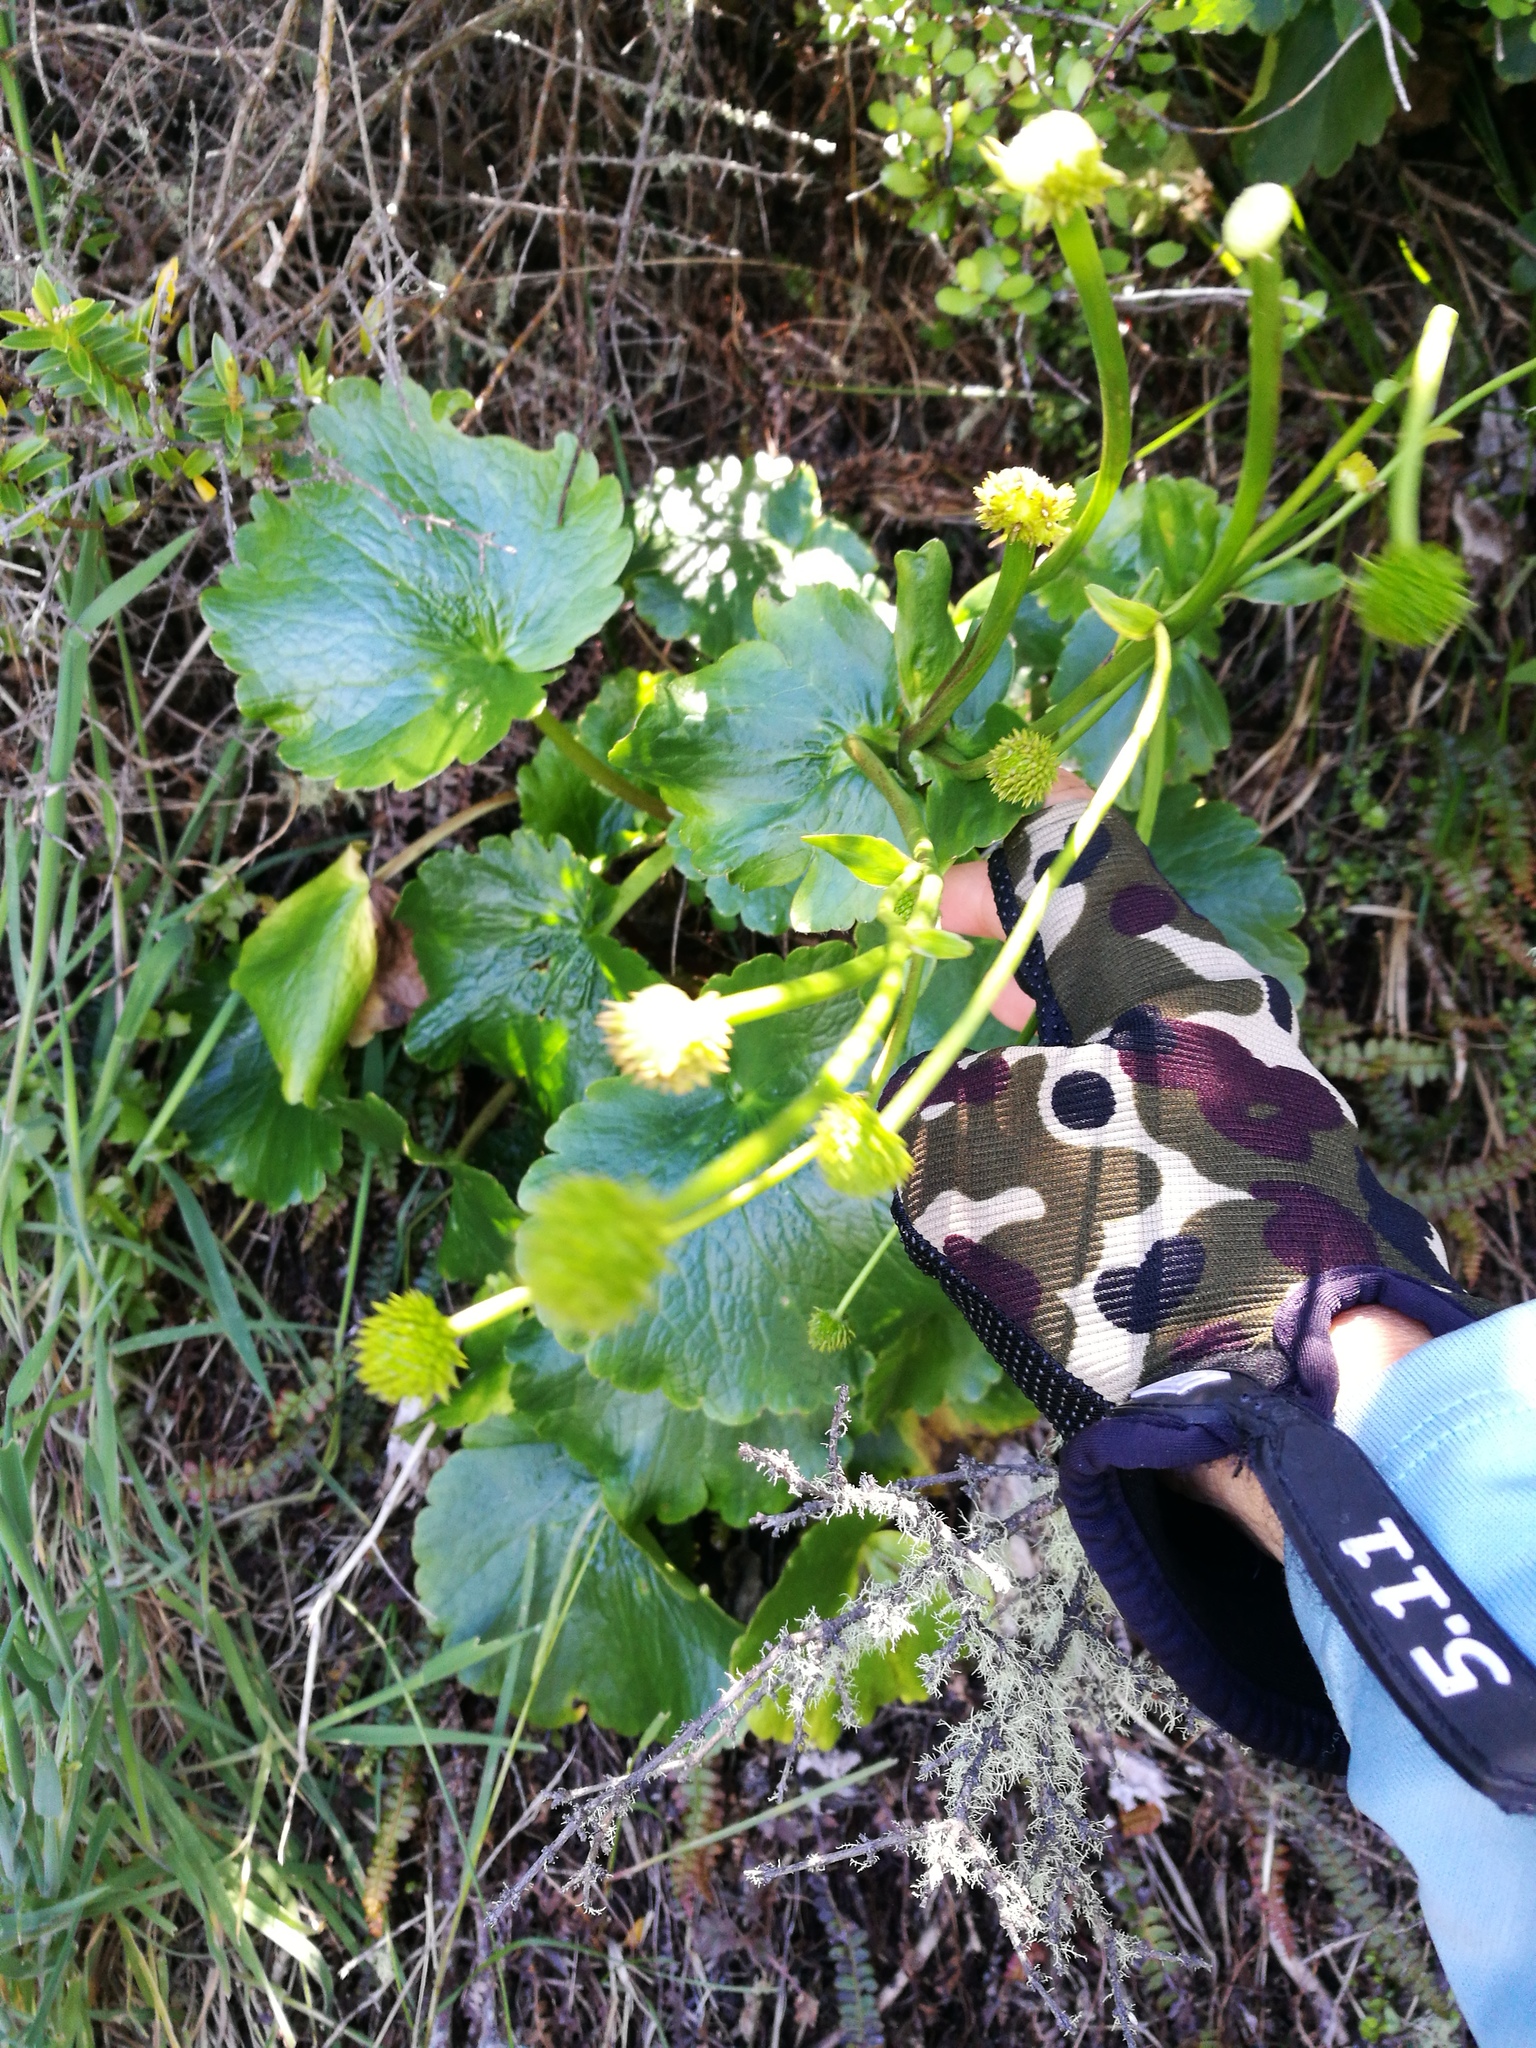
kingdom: Plantae
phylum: Tracheophyta
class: Magnoliopsida
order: Ranunculales
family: Ranunculaceae
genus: Ranunculus
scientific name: Ranunculus insignis
